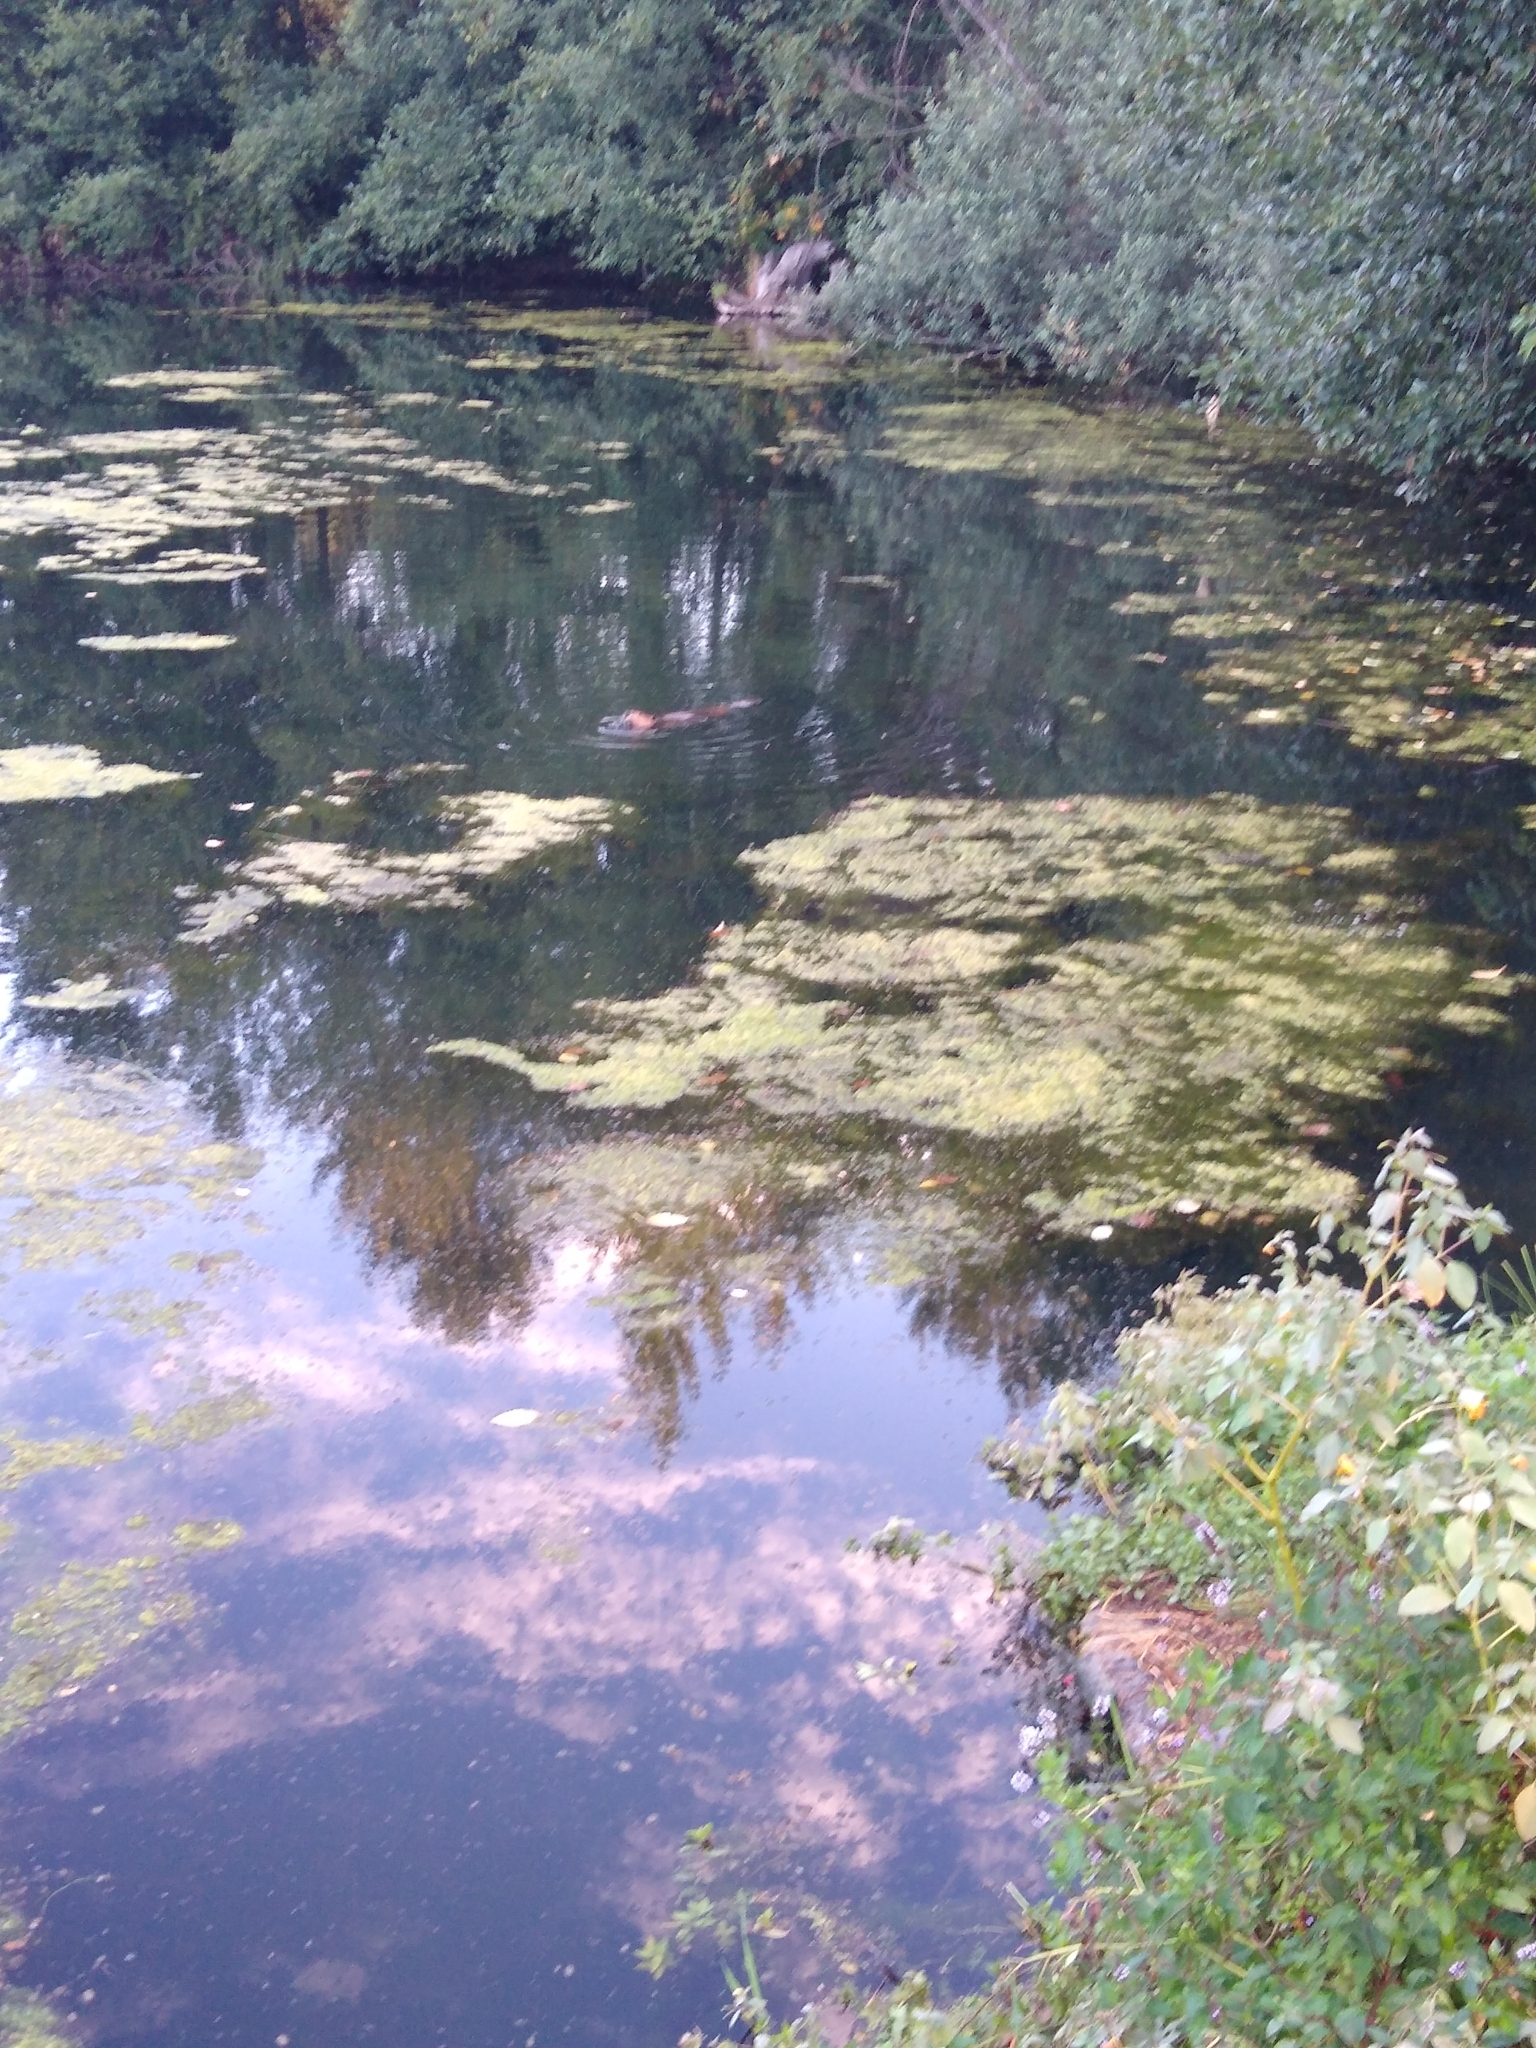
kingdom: Animalia
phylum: Chordata
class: Mammalia
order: Rodentia
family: Castoridae
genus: Castor
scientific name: Castor canadensis
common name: American beaver
